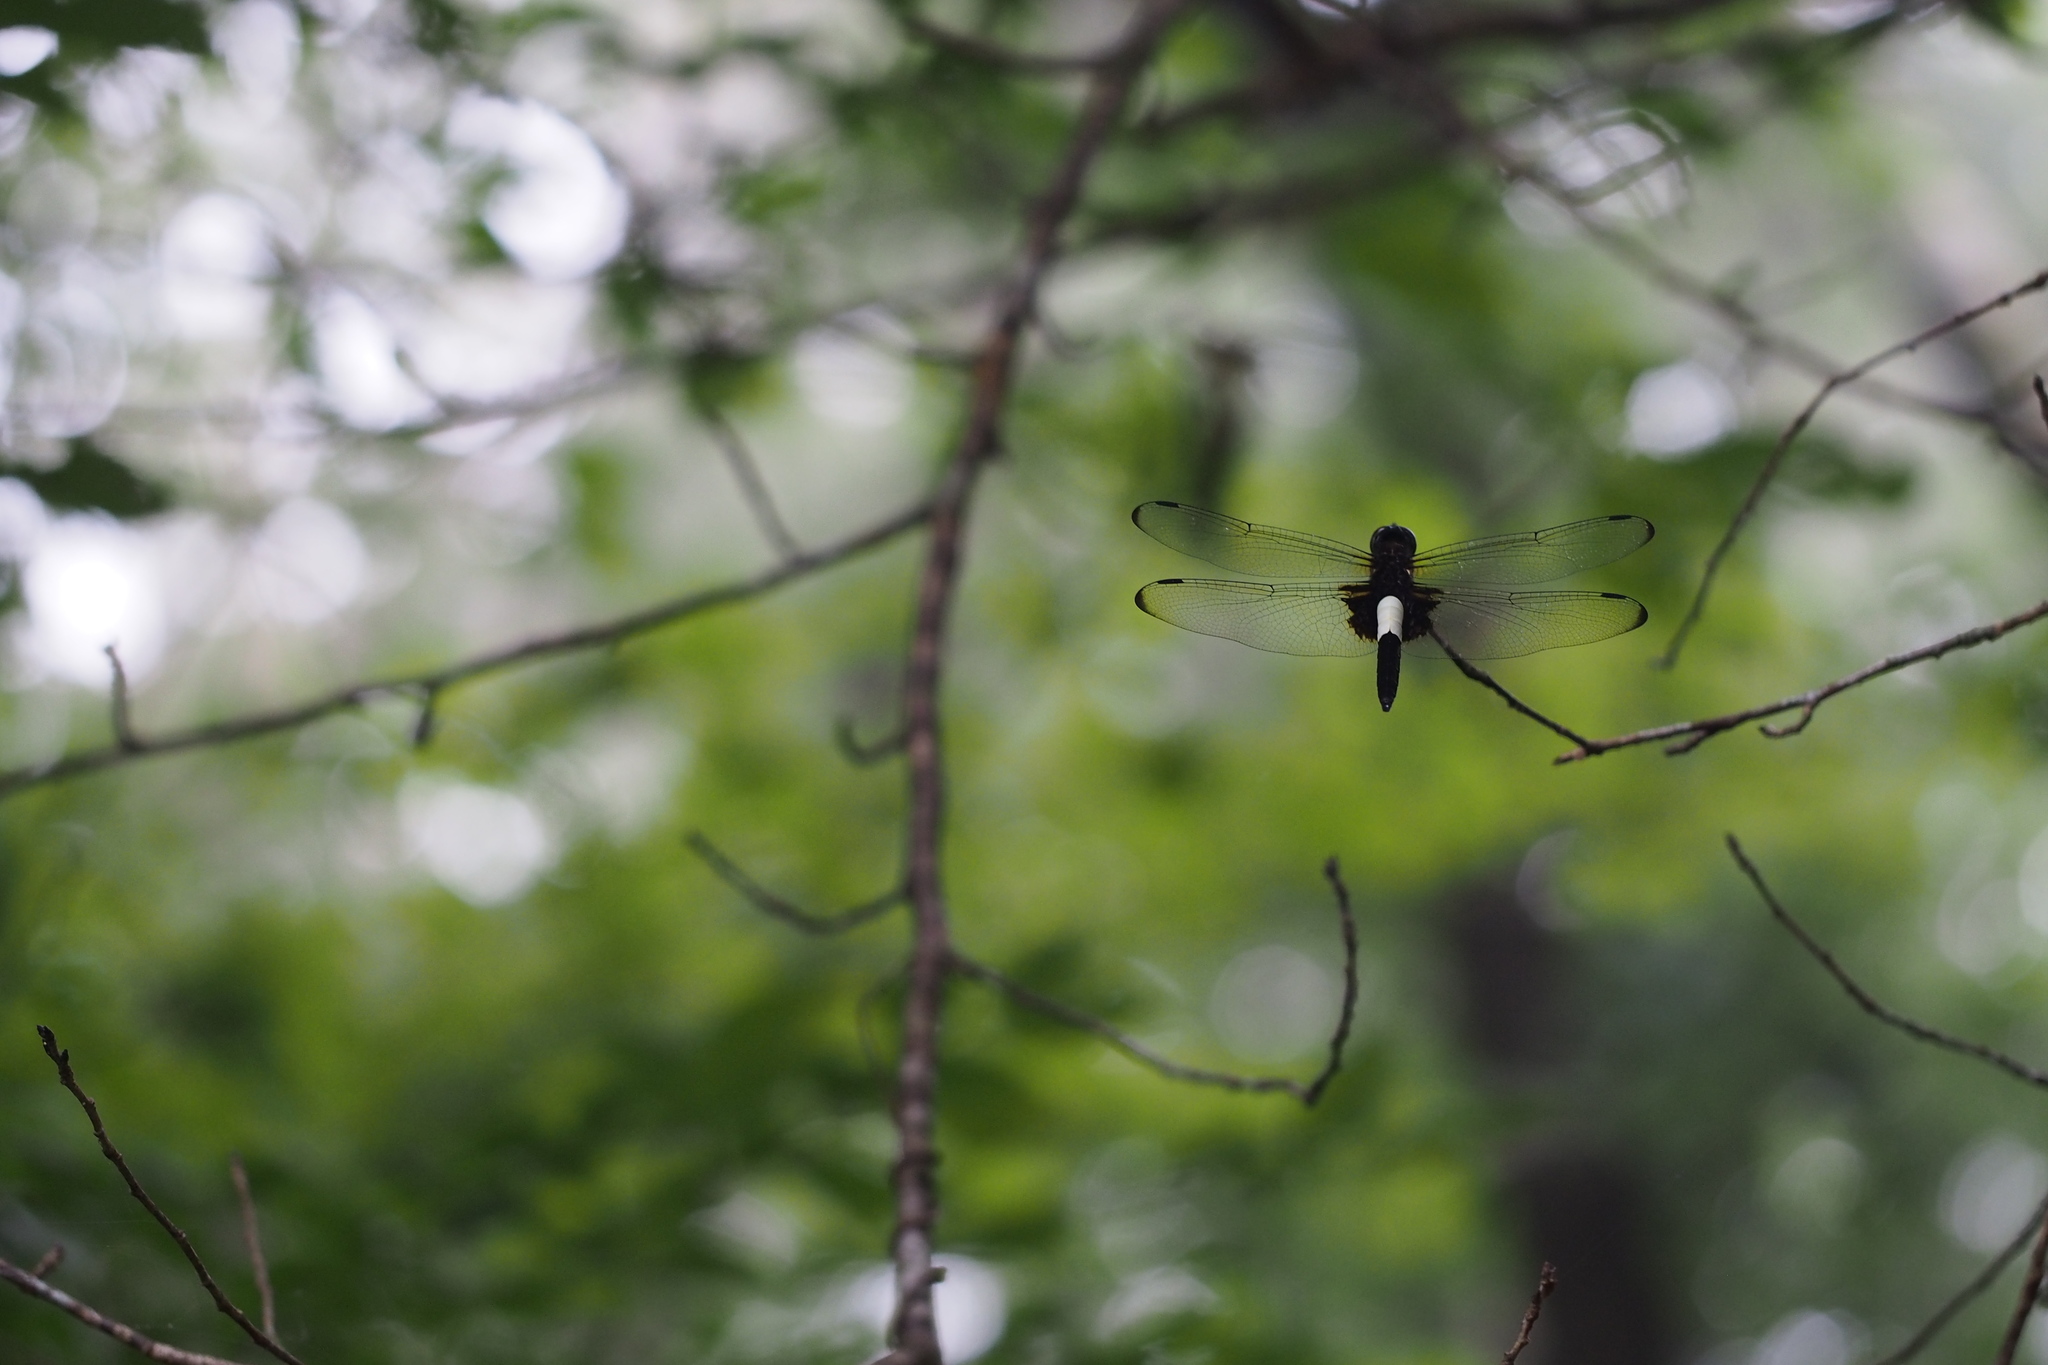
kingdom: Animalia
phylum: Arthropoda
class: Insecta
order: Odonata
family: Libellulidae
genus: Pseudothemis
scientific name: Pseudothemis zonata
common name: Pied skimmer
